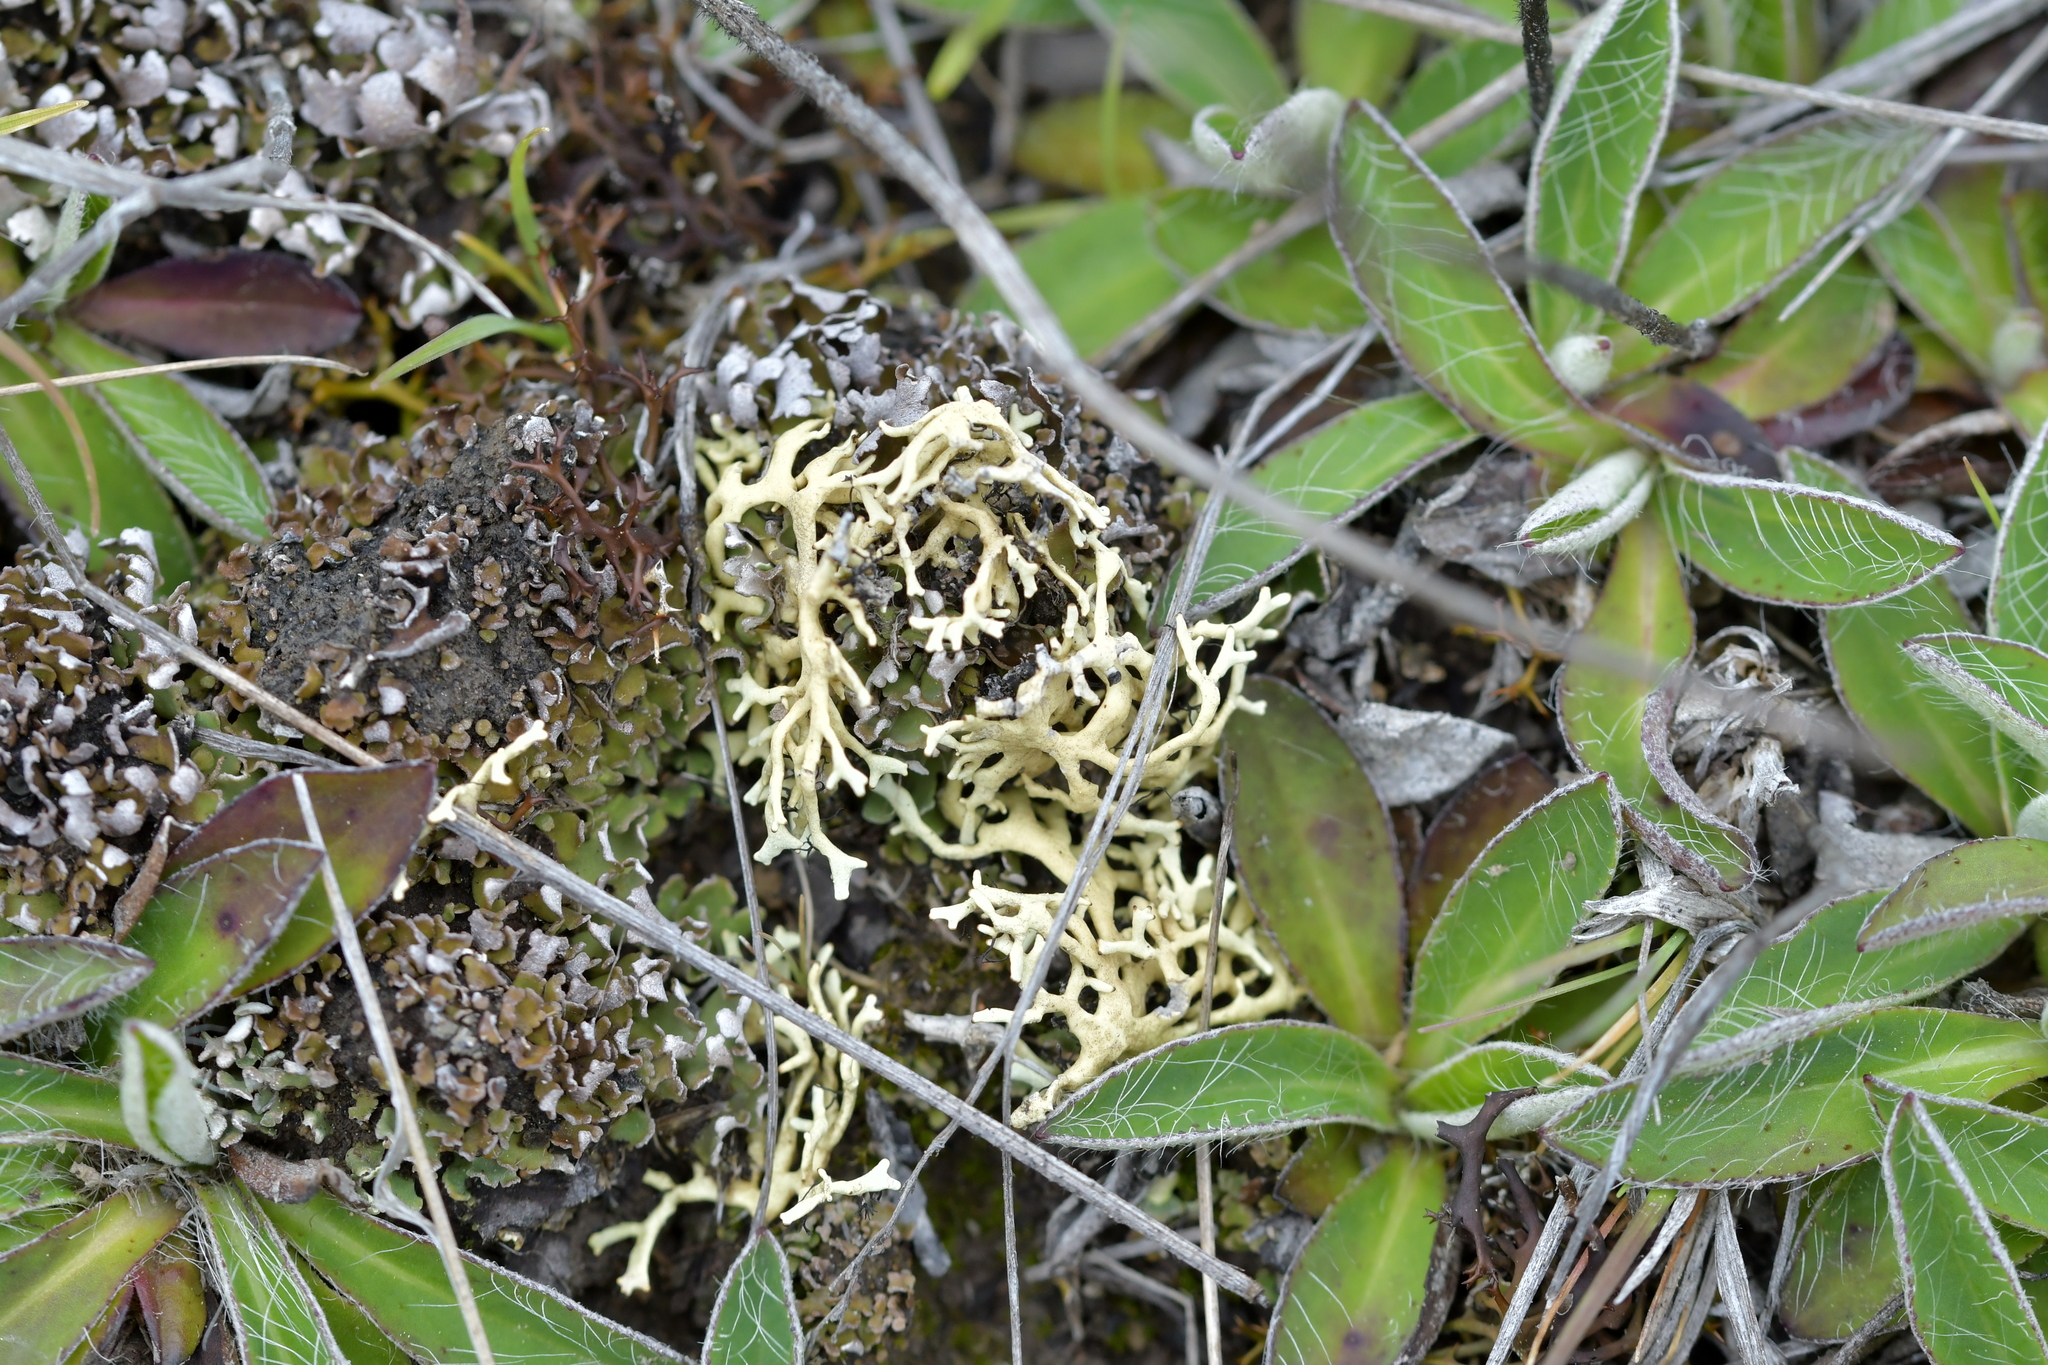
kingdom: Fungi
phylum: Ascomycota
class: Lecanoromycetes
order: Lecanorales
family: Parmeliaceae
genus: Xanthoparmelia
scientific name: Xanthoparmelia reptans
